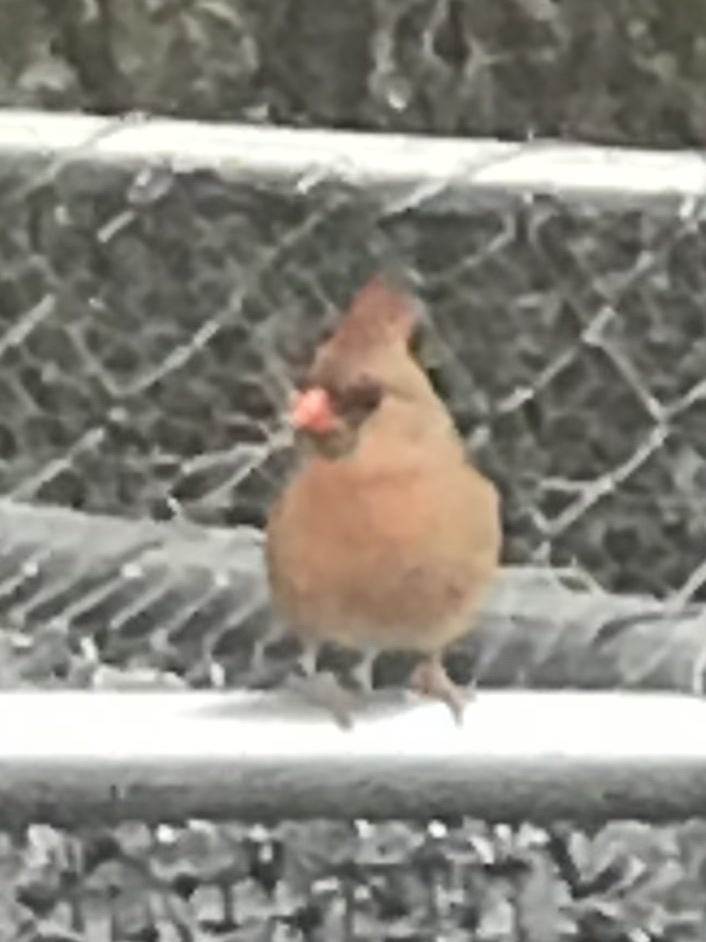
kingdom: Animalia
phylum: Chordata
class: Aves
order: Passeriformes
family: Cardinalidae
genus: Cardinalis
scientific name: Cardinalis cardinalis
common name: Northern cardinal
